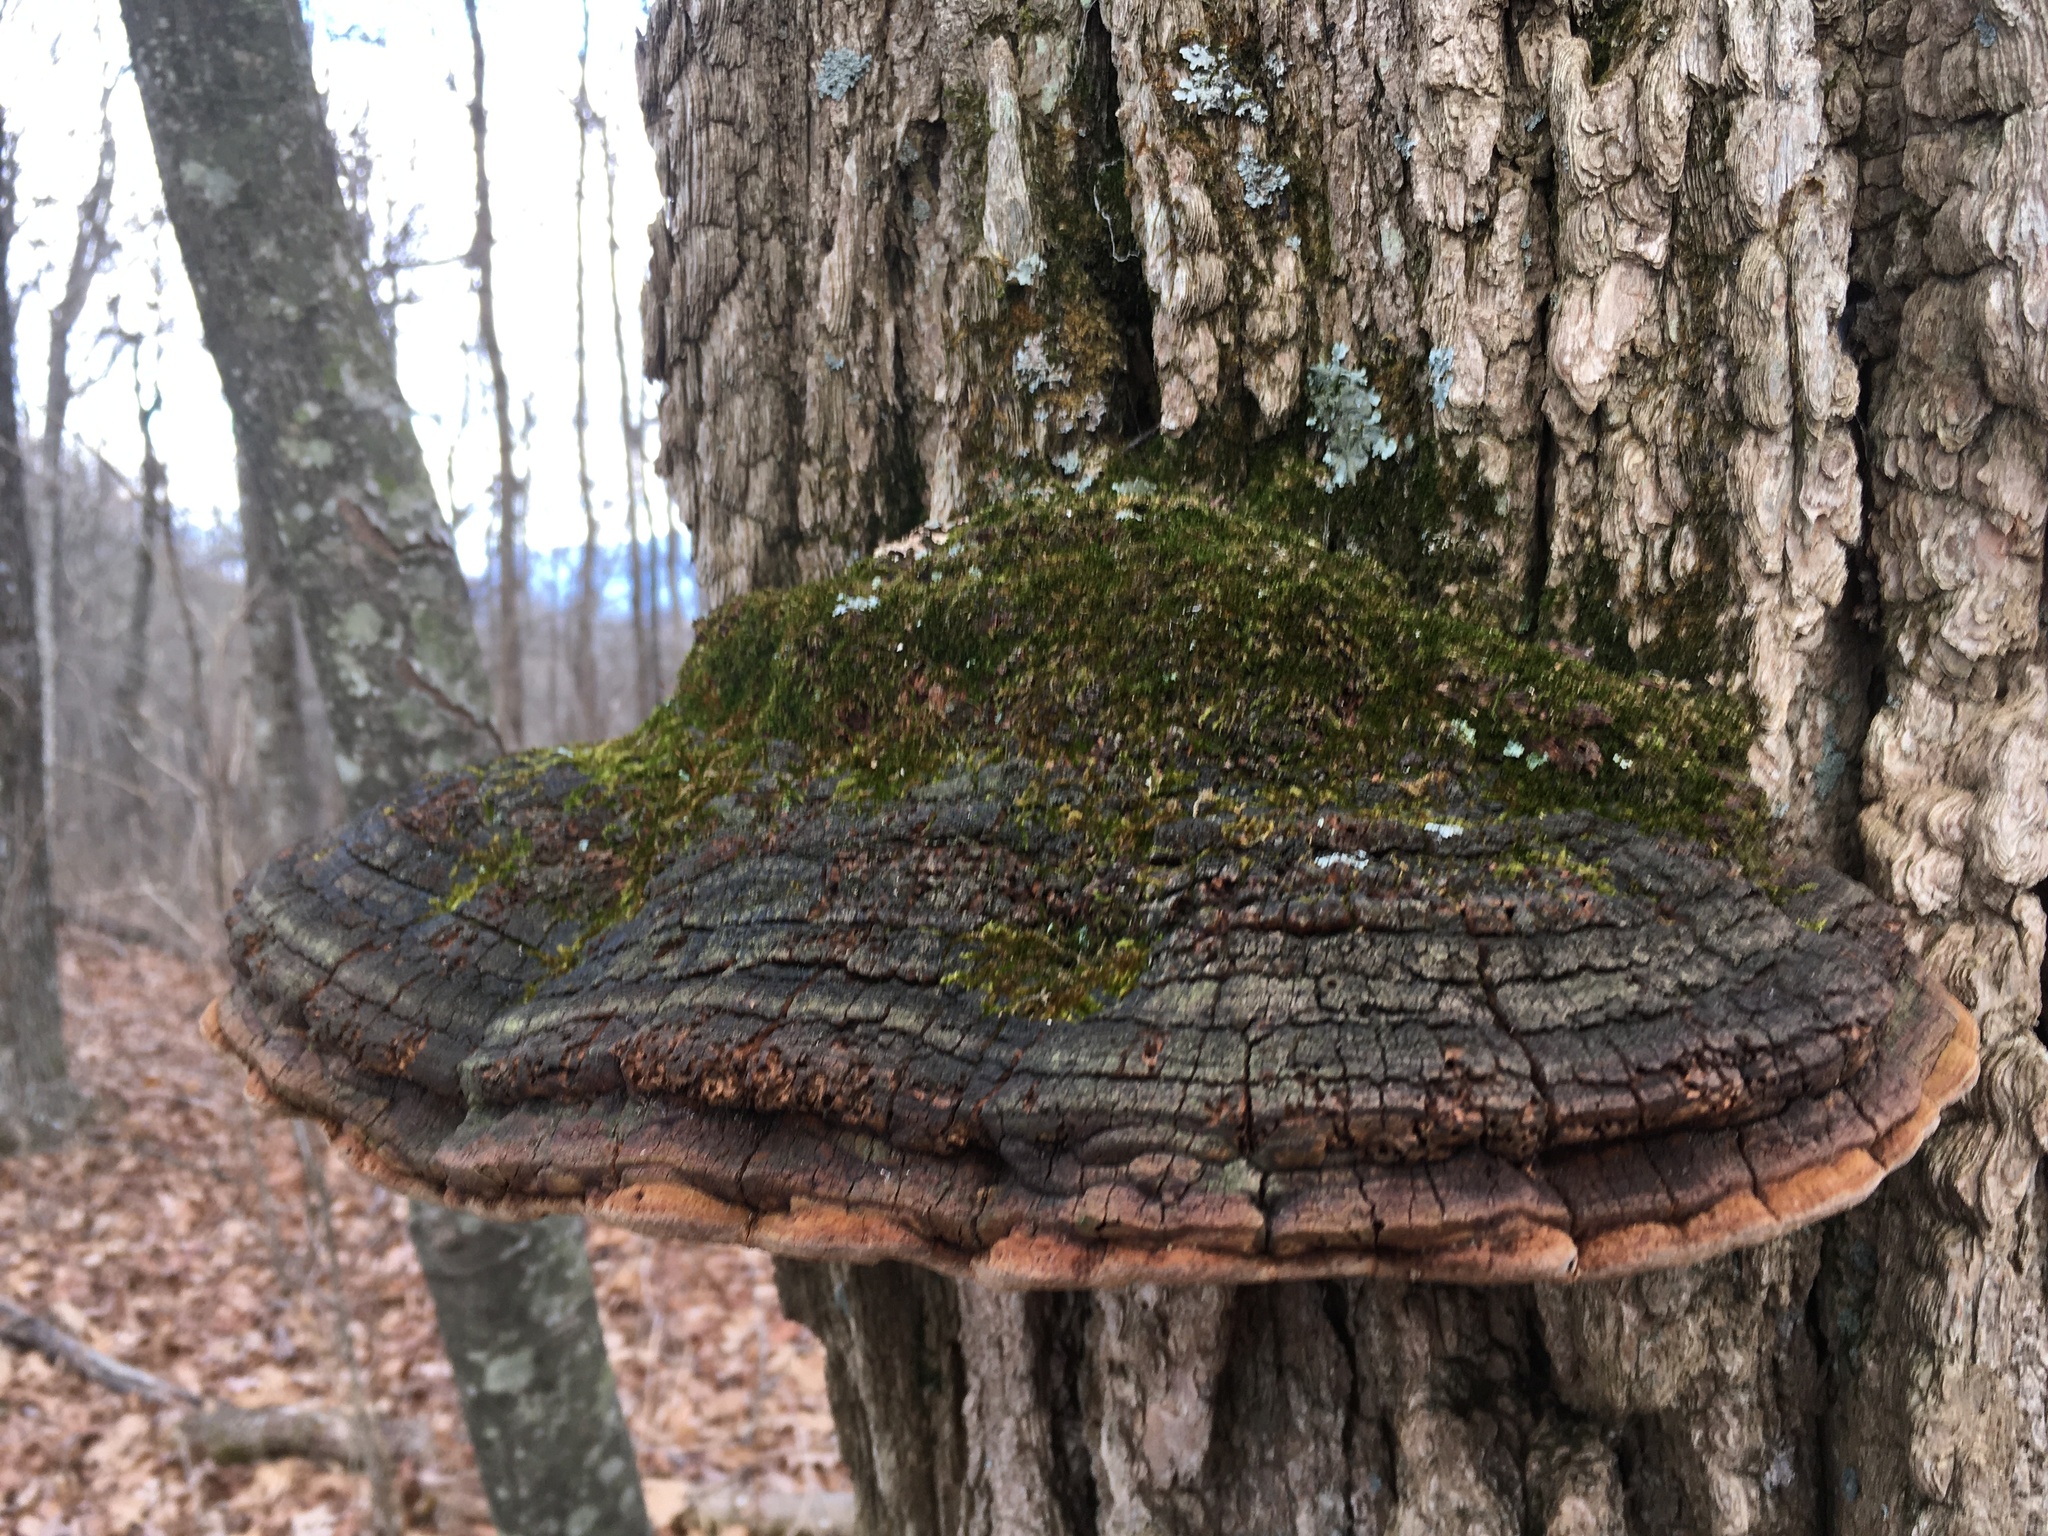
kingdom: Fungi
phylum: Basidiomycota
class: Agaricomycetes
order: Hymenochaetales
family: Hymenochaetaceae
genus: Phellinus
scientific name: Phellinus robiniae
